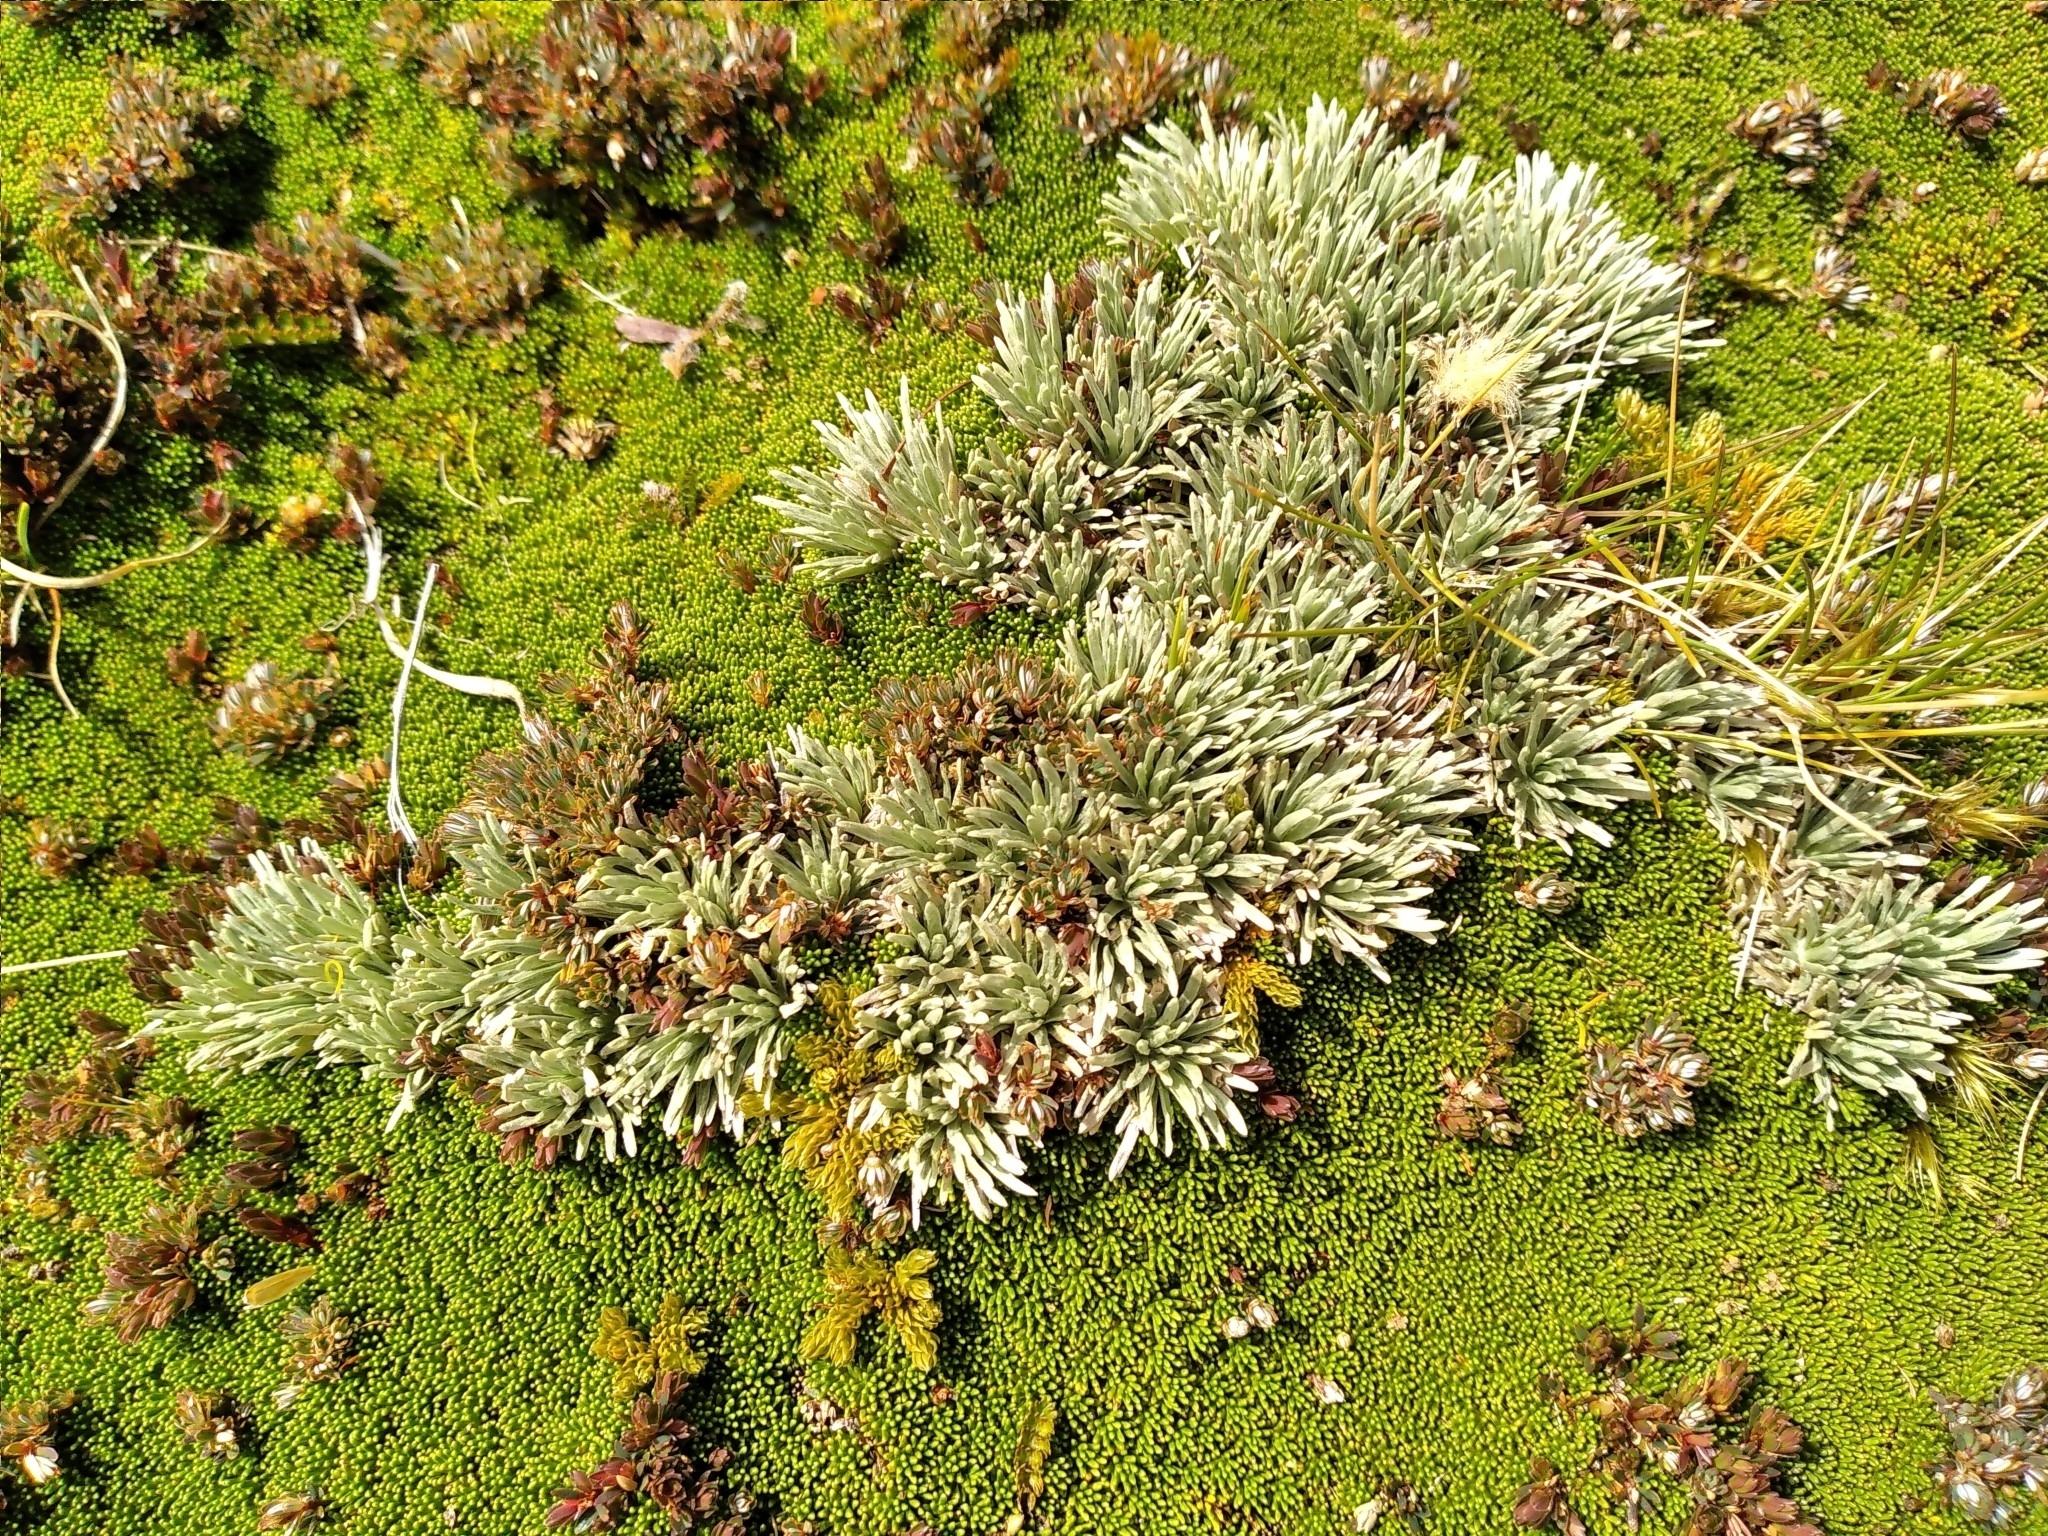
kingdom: Plantae
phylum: Tracheophyta
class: Magnoliopsida
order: Asterales
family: Asteraceae
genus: Celmisia
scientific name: Celmisia sessiliflora
